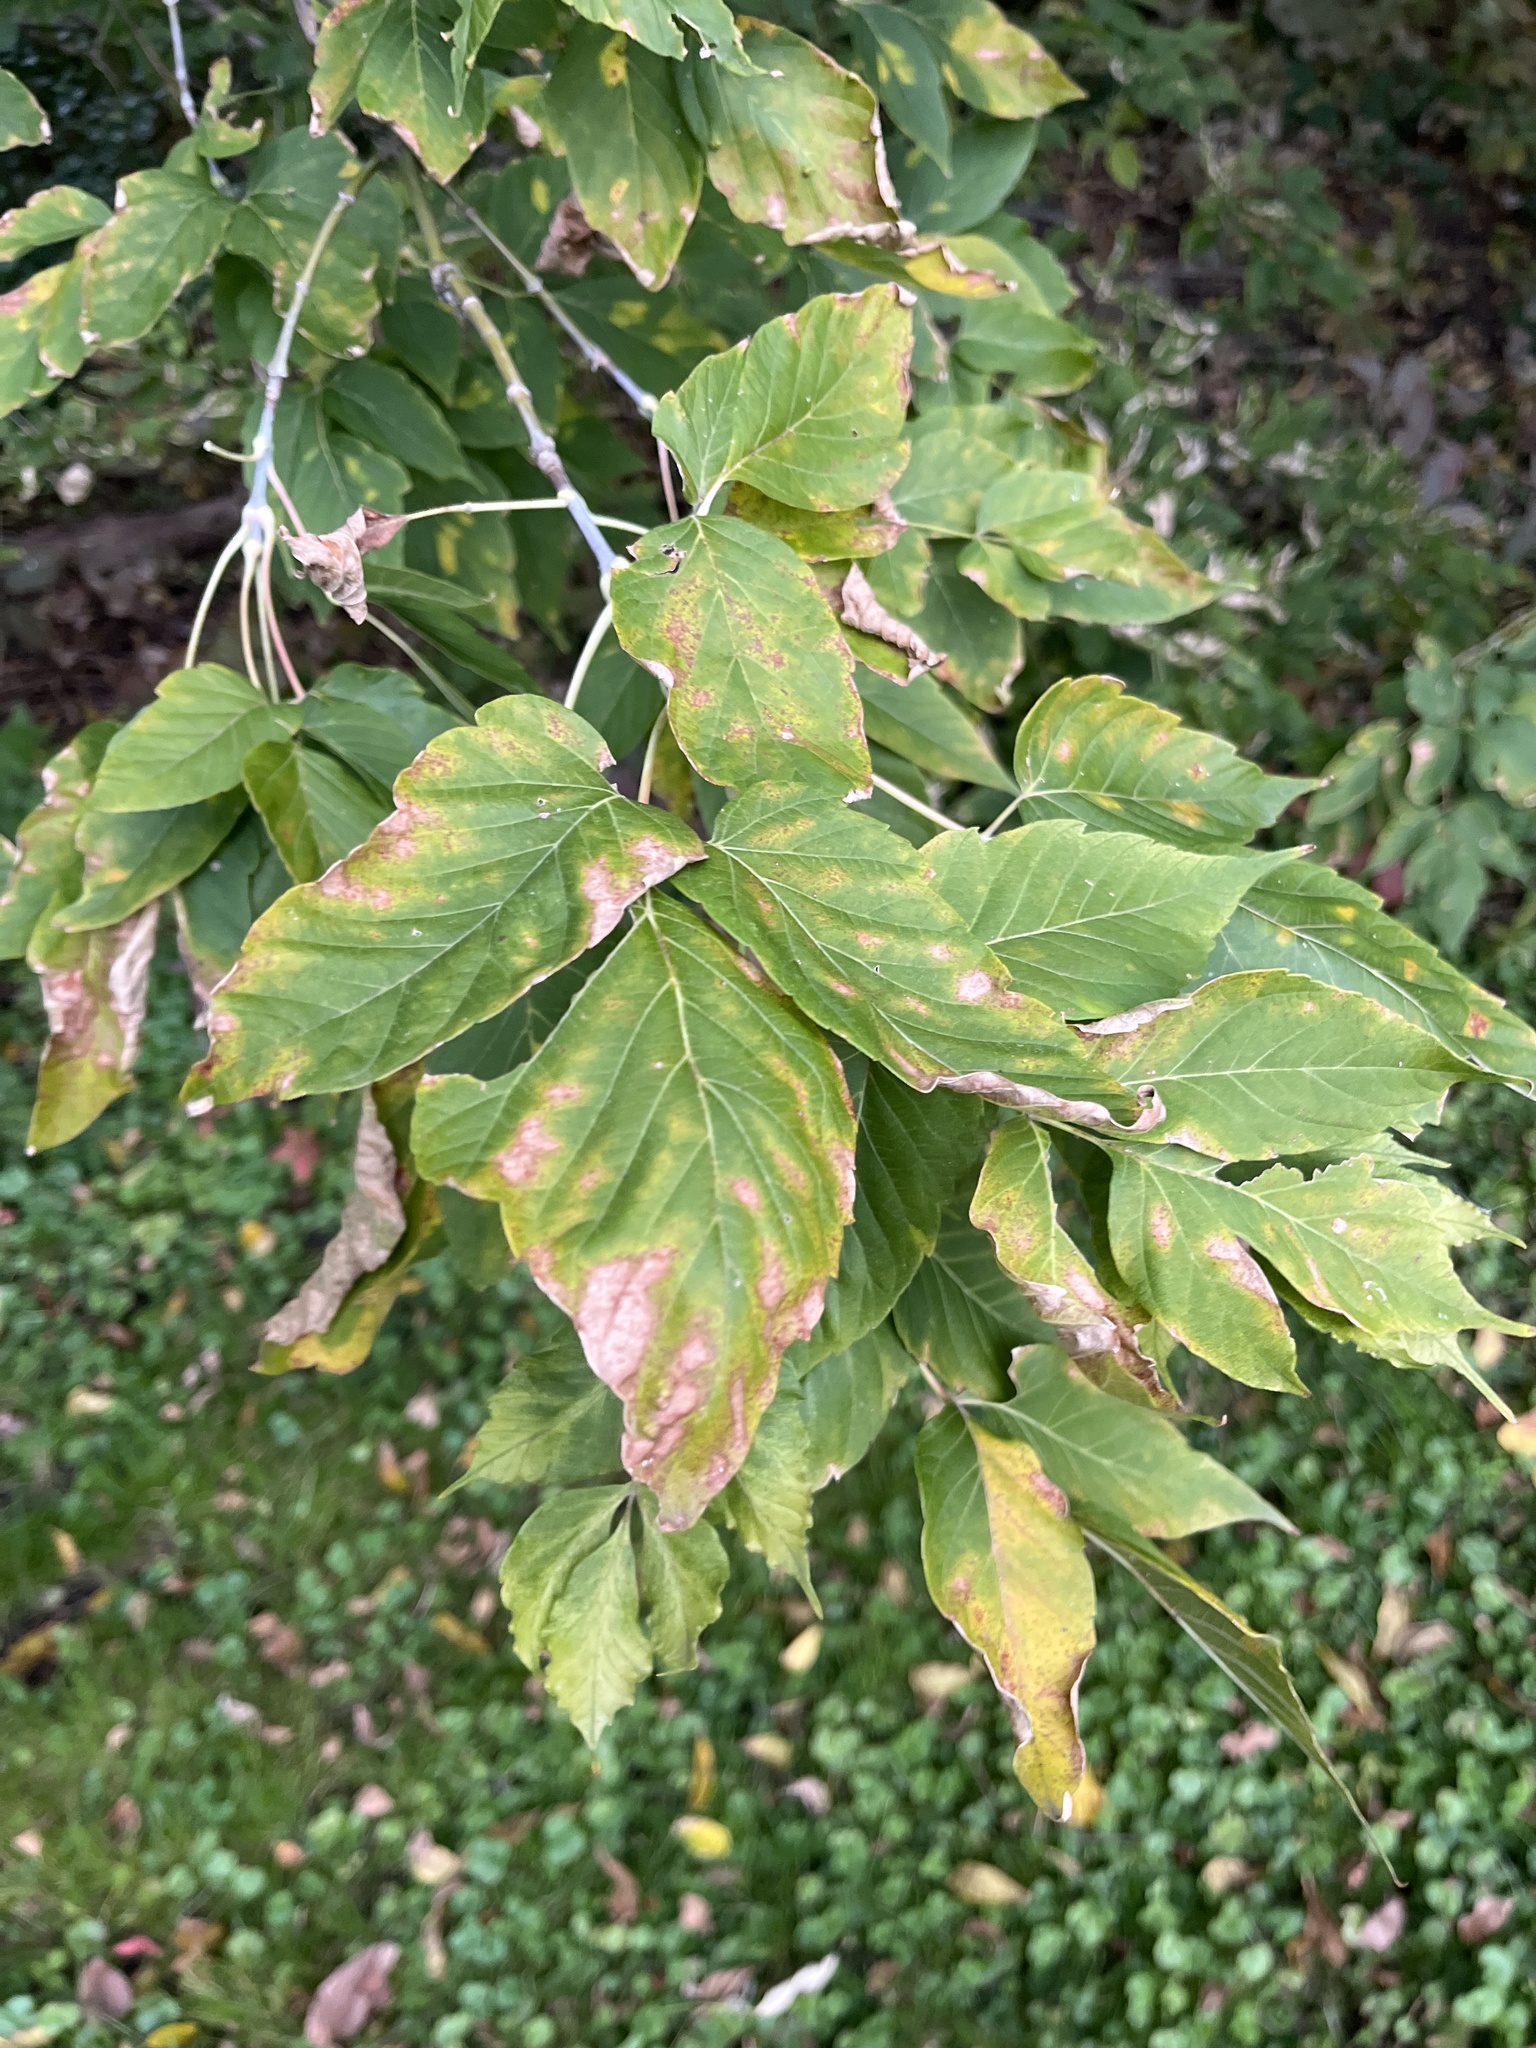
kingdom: Plantae
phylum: Tracheophyta
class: Magnoliopsida
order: Rosales
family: Cannabaceae
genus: Celtis
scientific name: Celtis occidentalis
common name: Common hackberry
